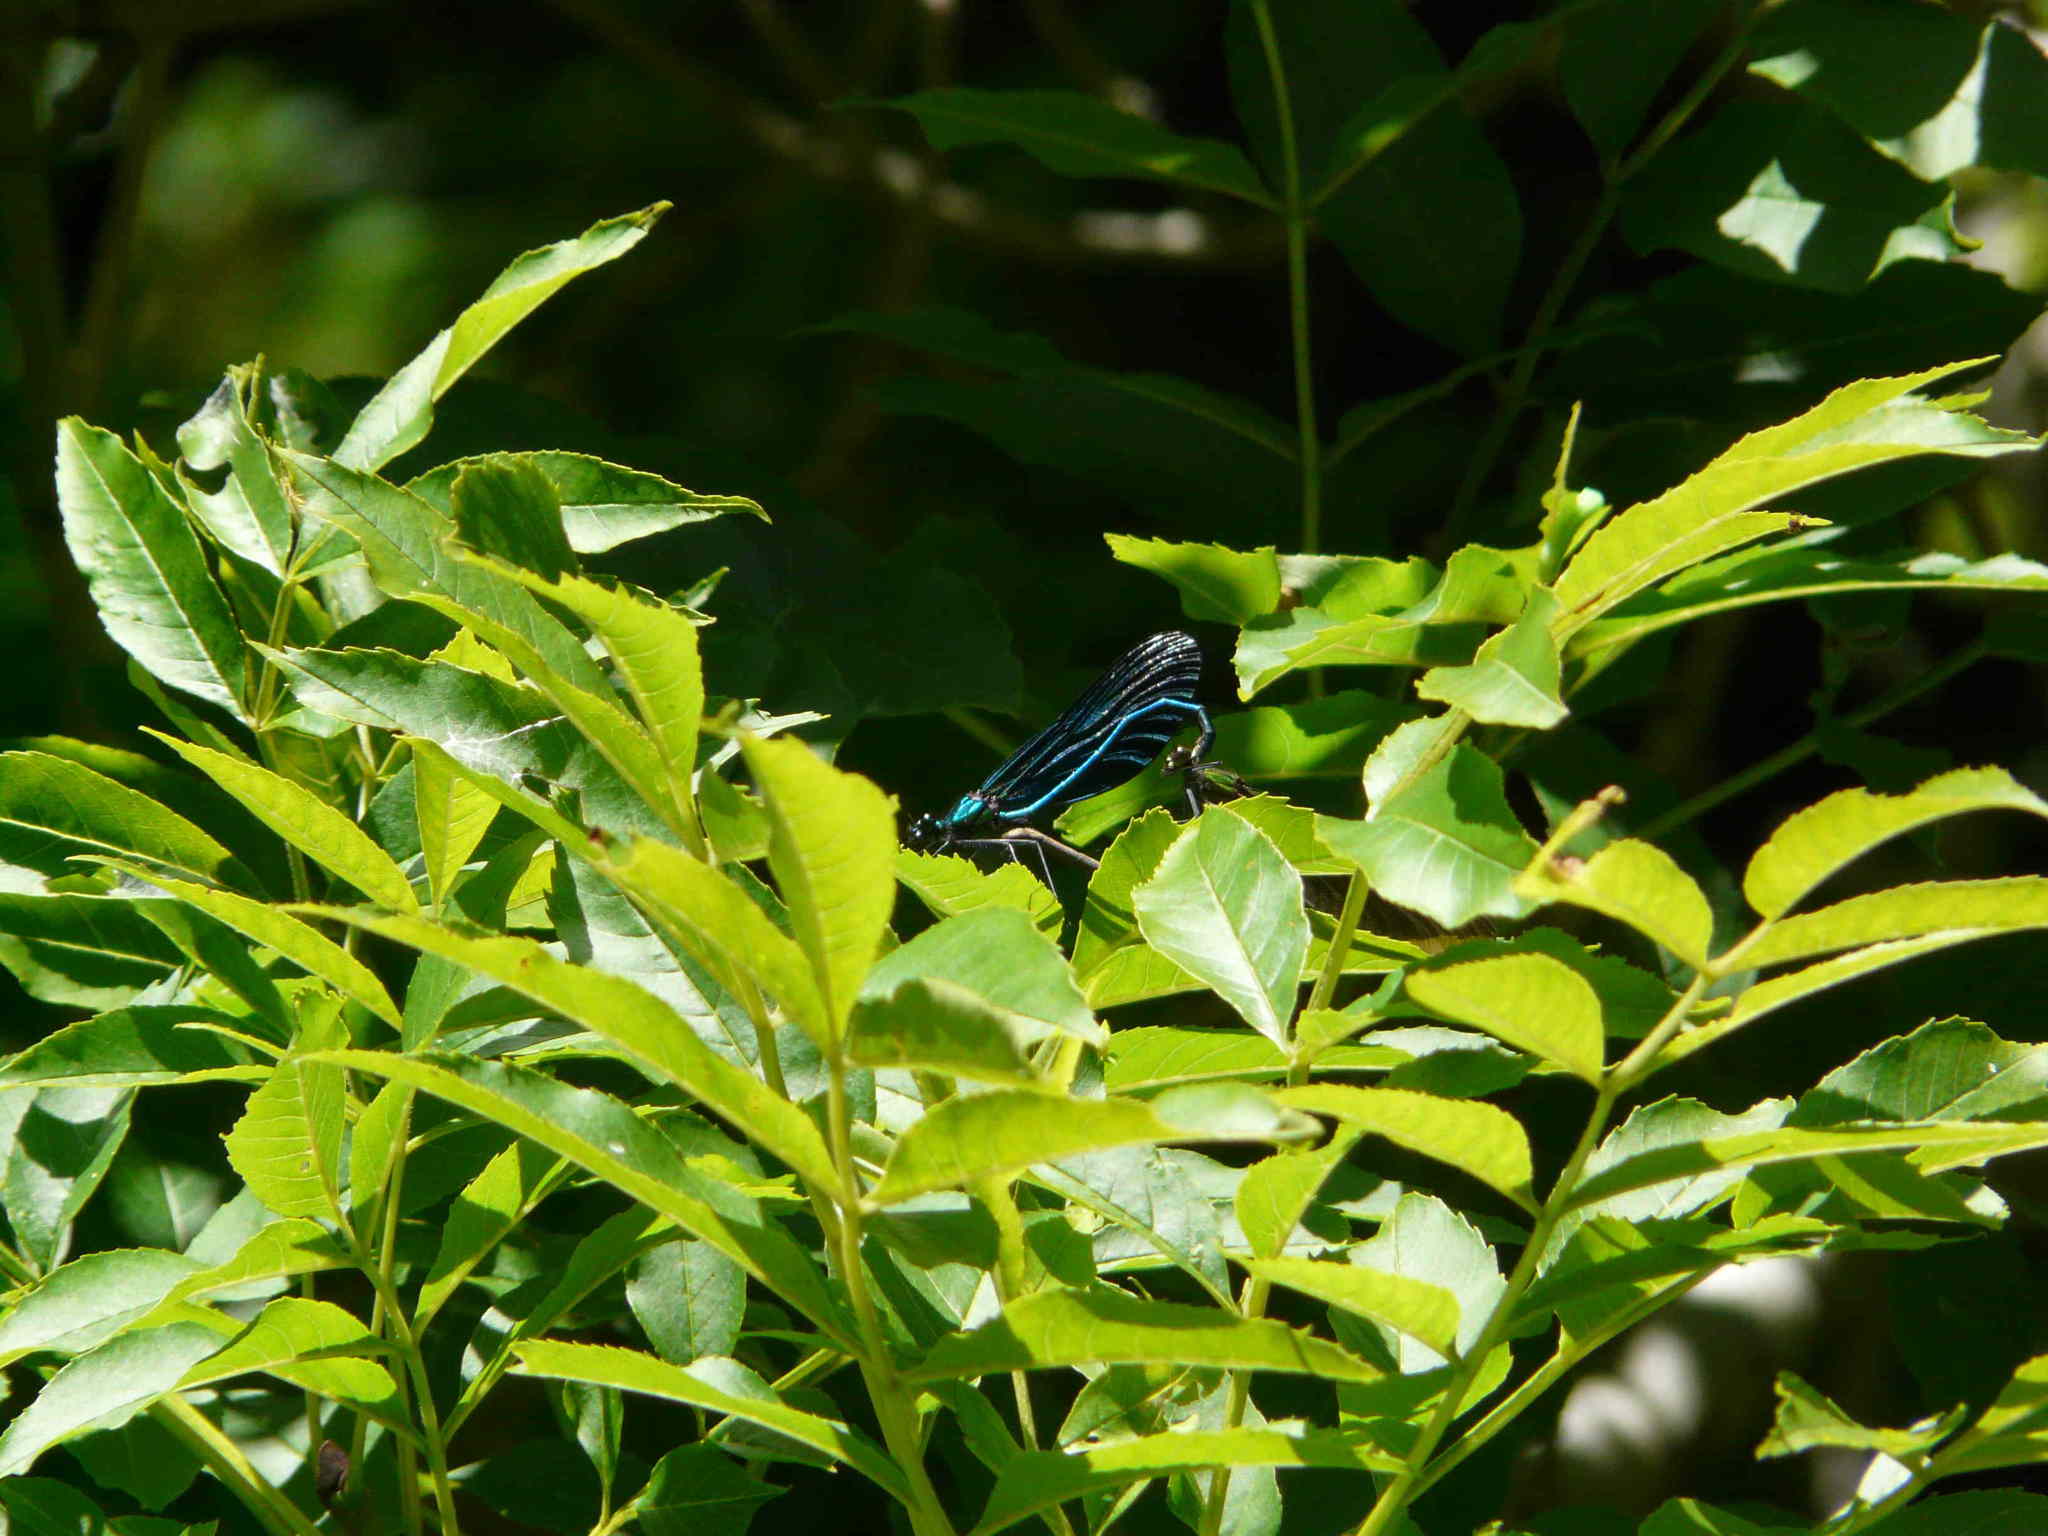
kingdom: Animalia
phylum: Arthropoda
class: Insecta
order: Odonata
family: Calopterygidae
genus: Calopteryx
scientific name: Calopteryx virgo
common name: Beautiful demoiselle
